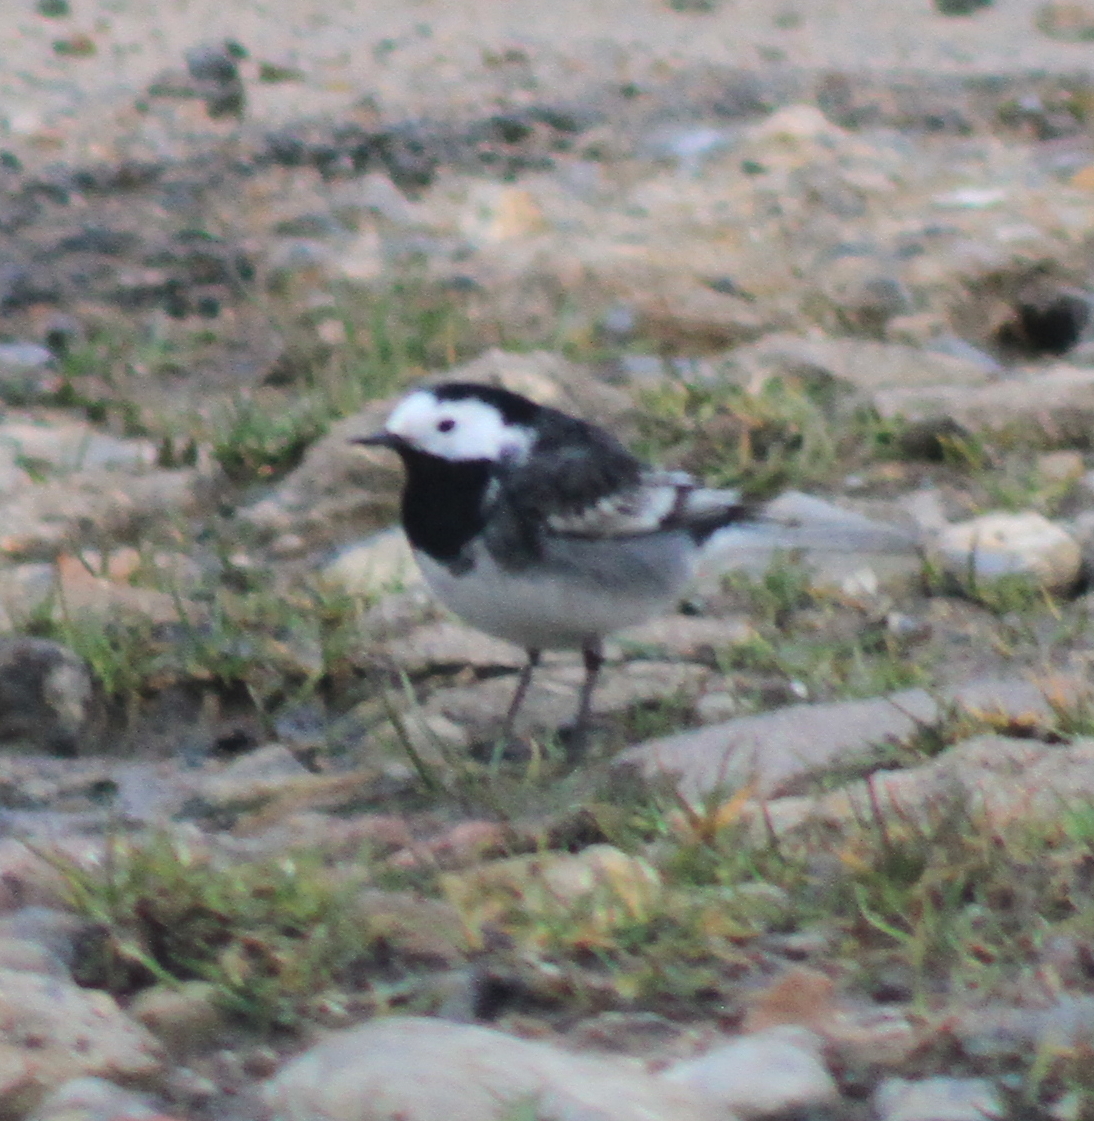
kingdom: Animalia
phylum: Chordata
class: Aves
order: Passeriformes
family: Motacillidae
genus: Motacilla
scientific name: Motacilla alba
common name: White wagtail
